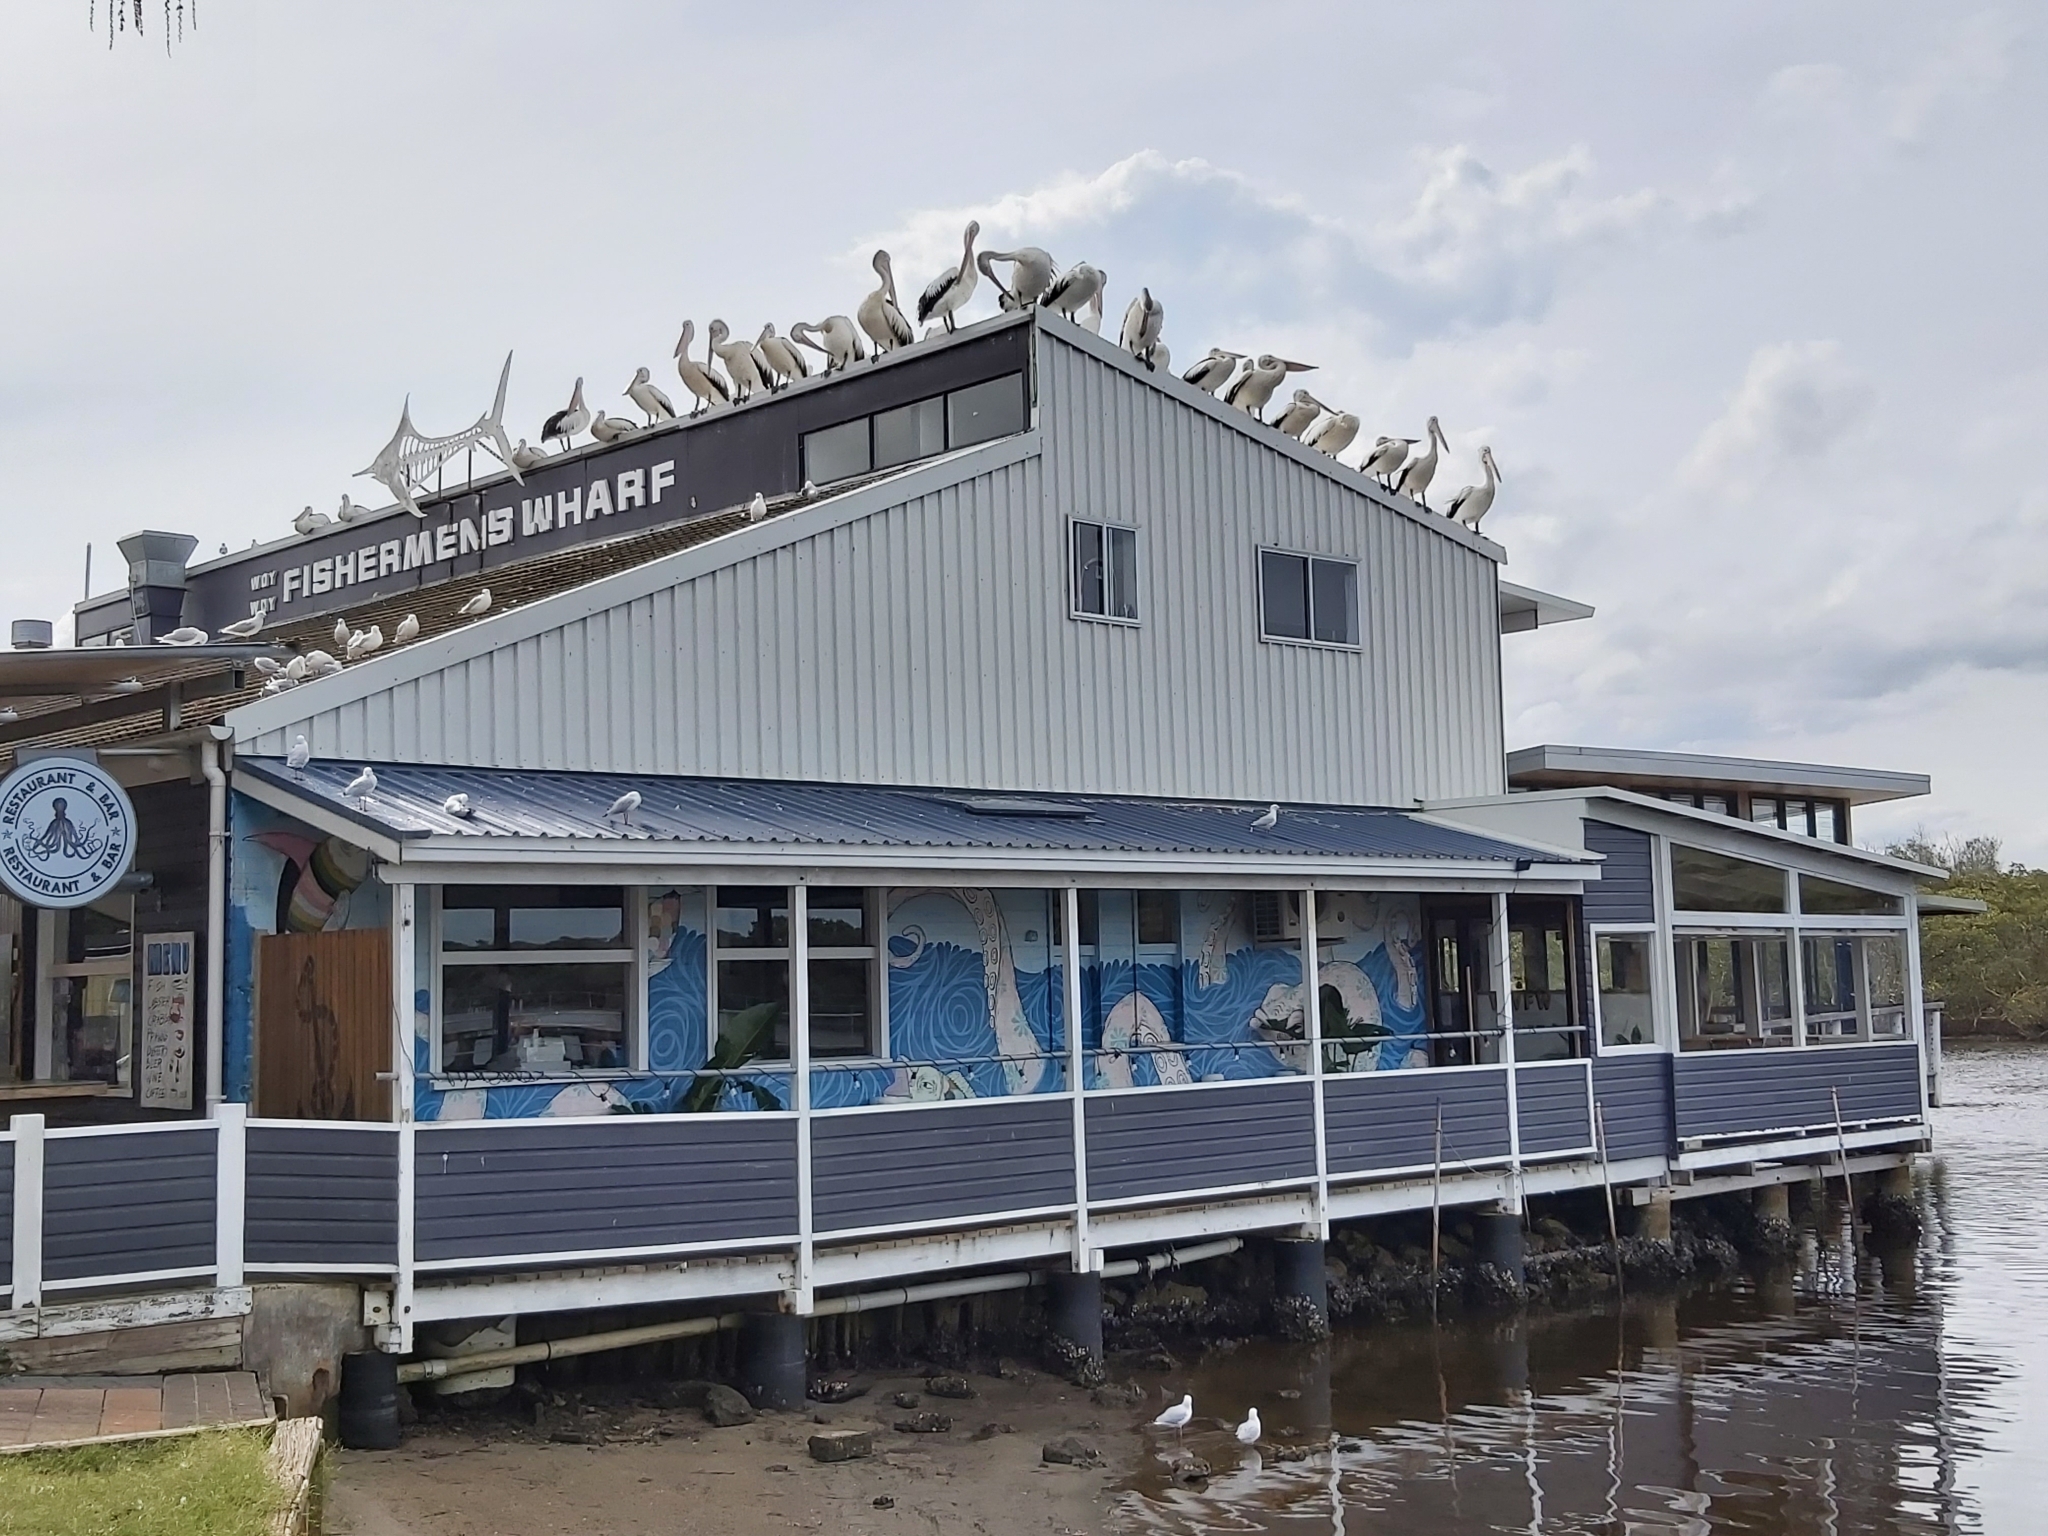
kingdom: Animalia
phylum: Chordata
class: Aves
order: Pelecaniformes
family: Pelecanidae
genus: Pelecanus
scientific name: Pelecanus conspicillatus
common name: Australian pelican
